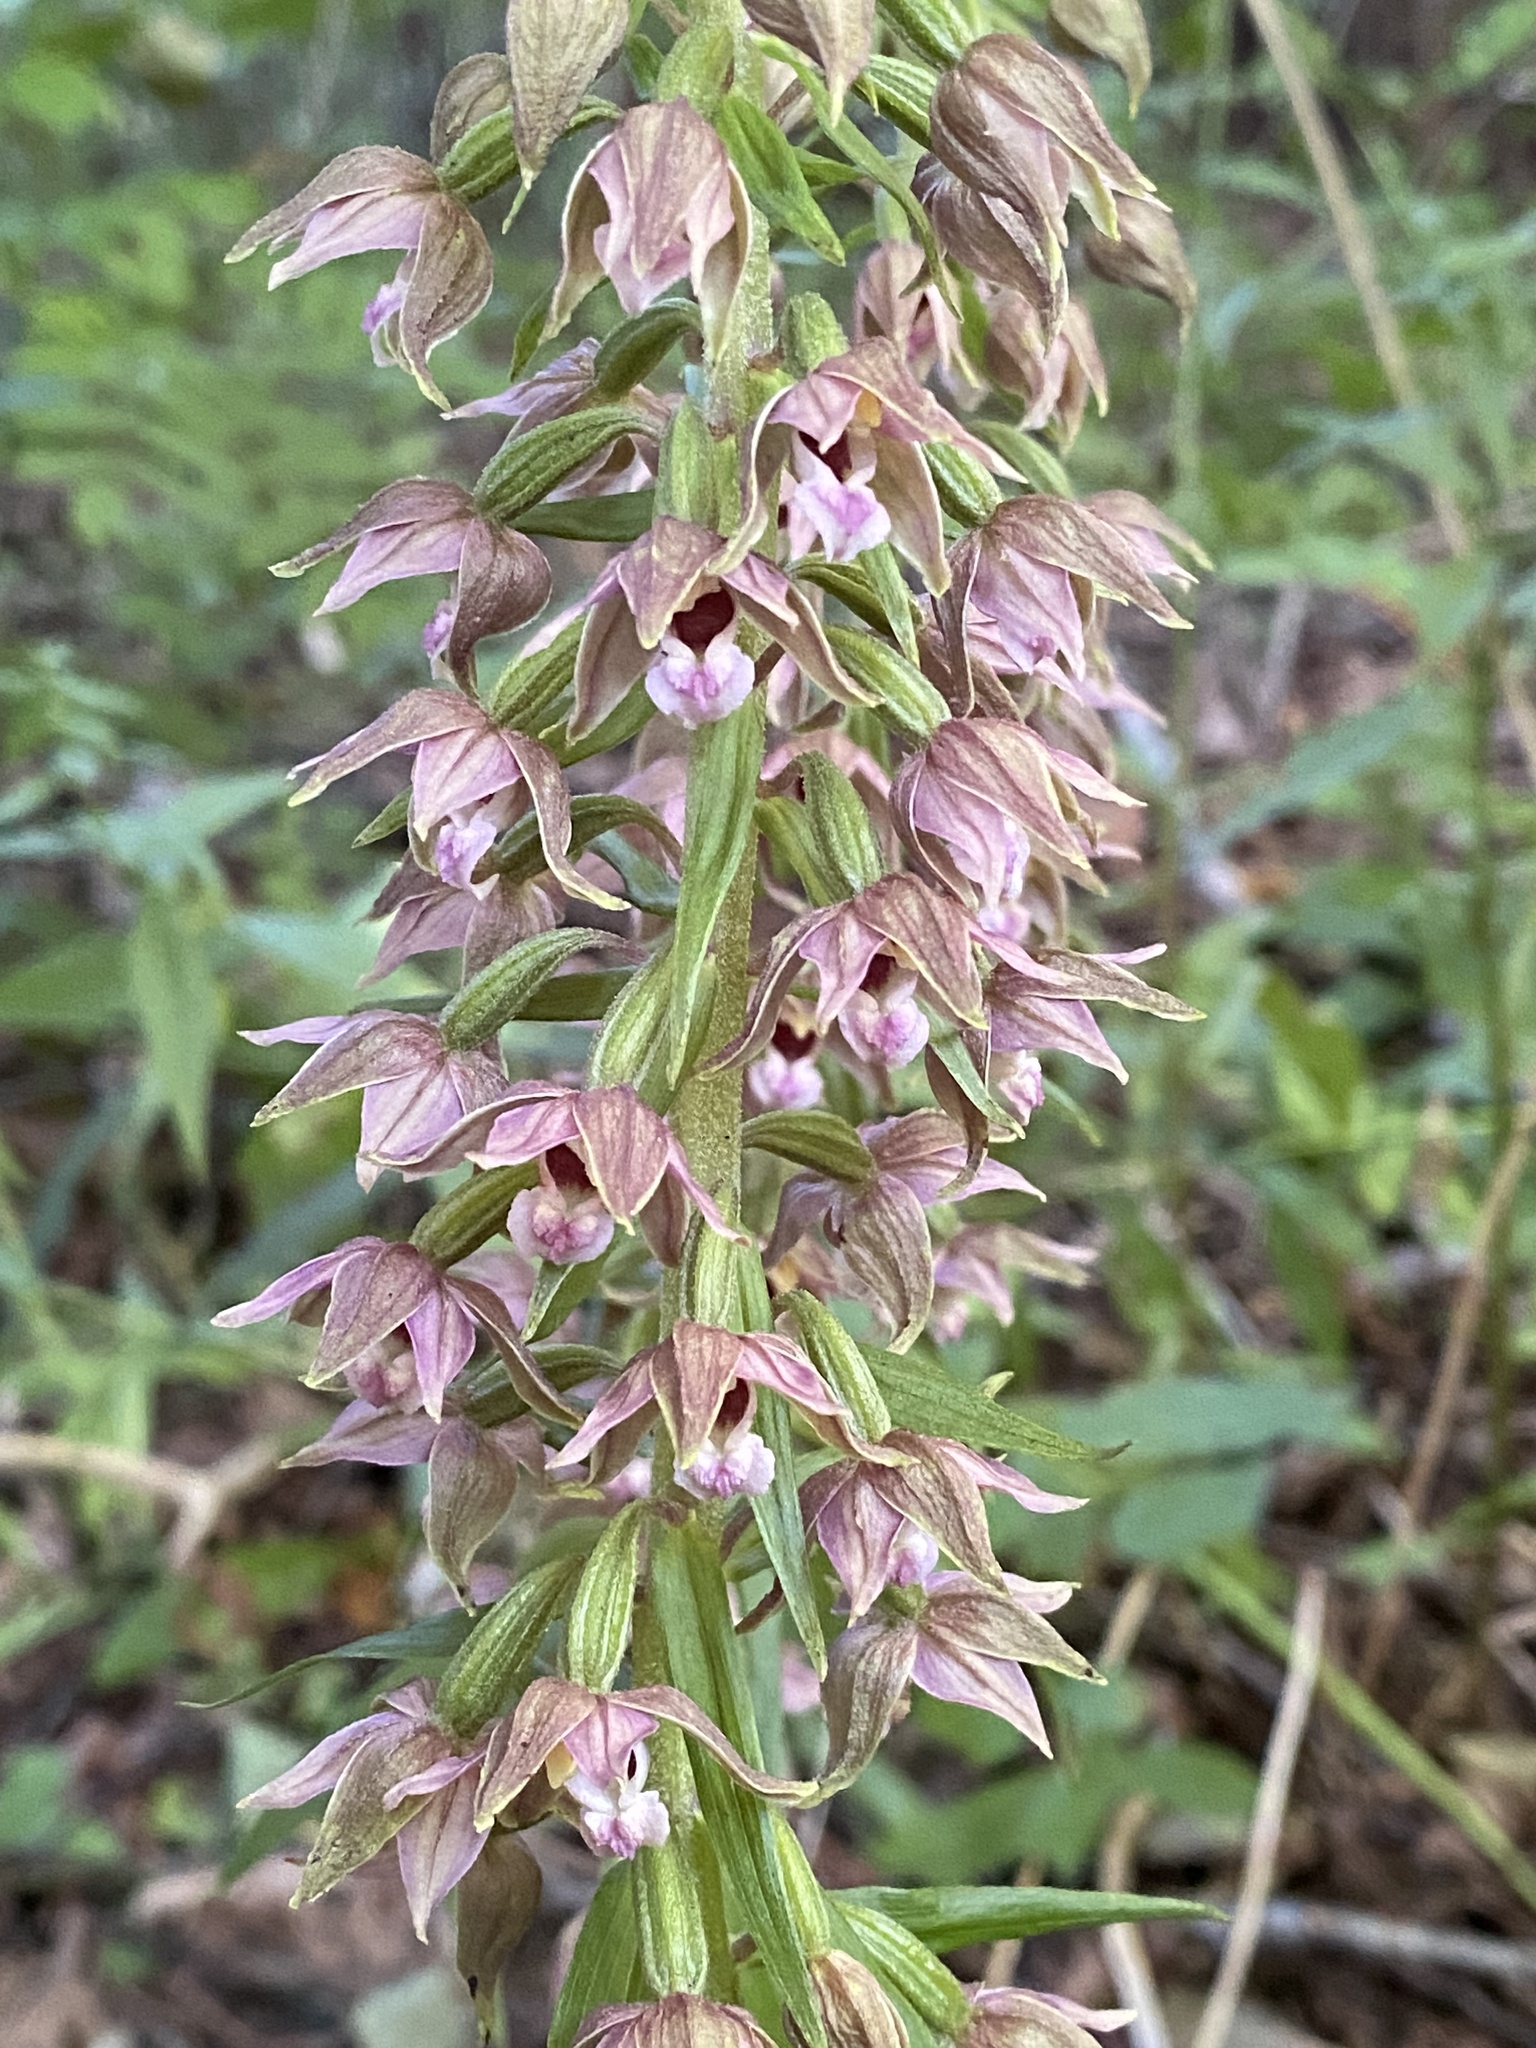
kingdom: Plantae
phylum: Tracheophyta
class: Liliopsida
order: Asparagales
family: Orchidaceae
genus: Epipactis
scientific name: Epipactis helleborine
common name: Broad-leaved helleborine
